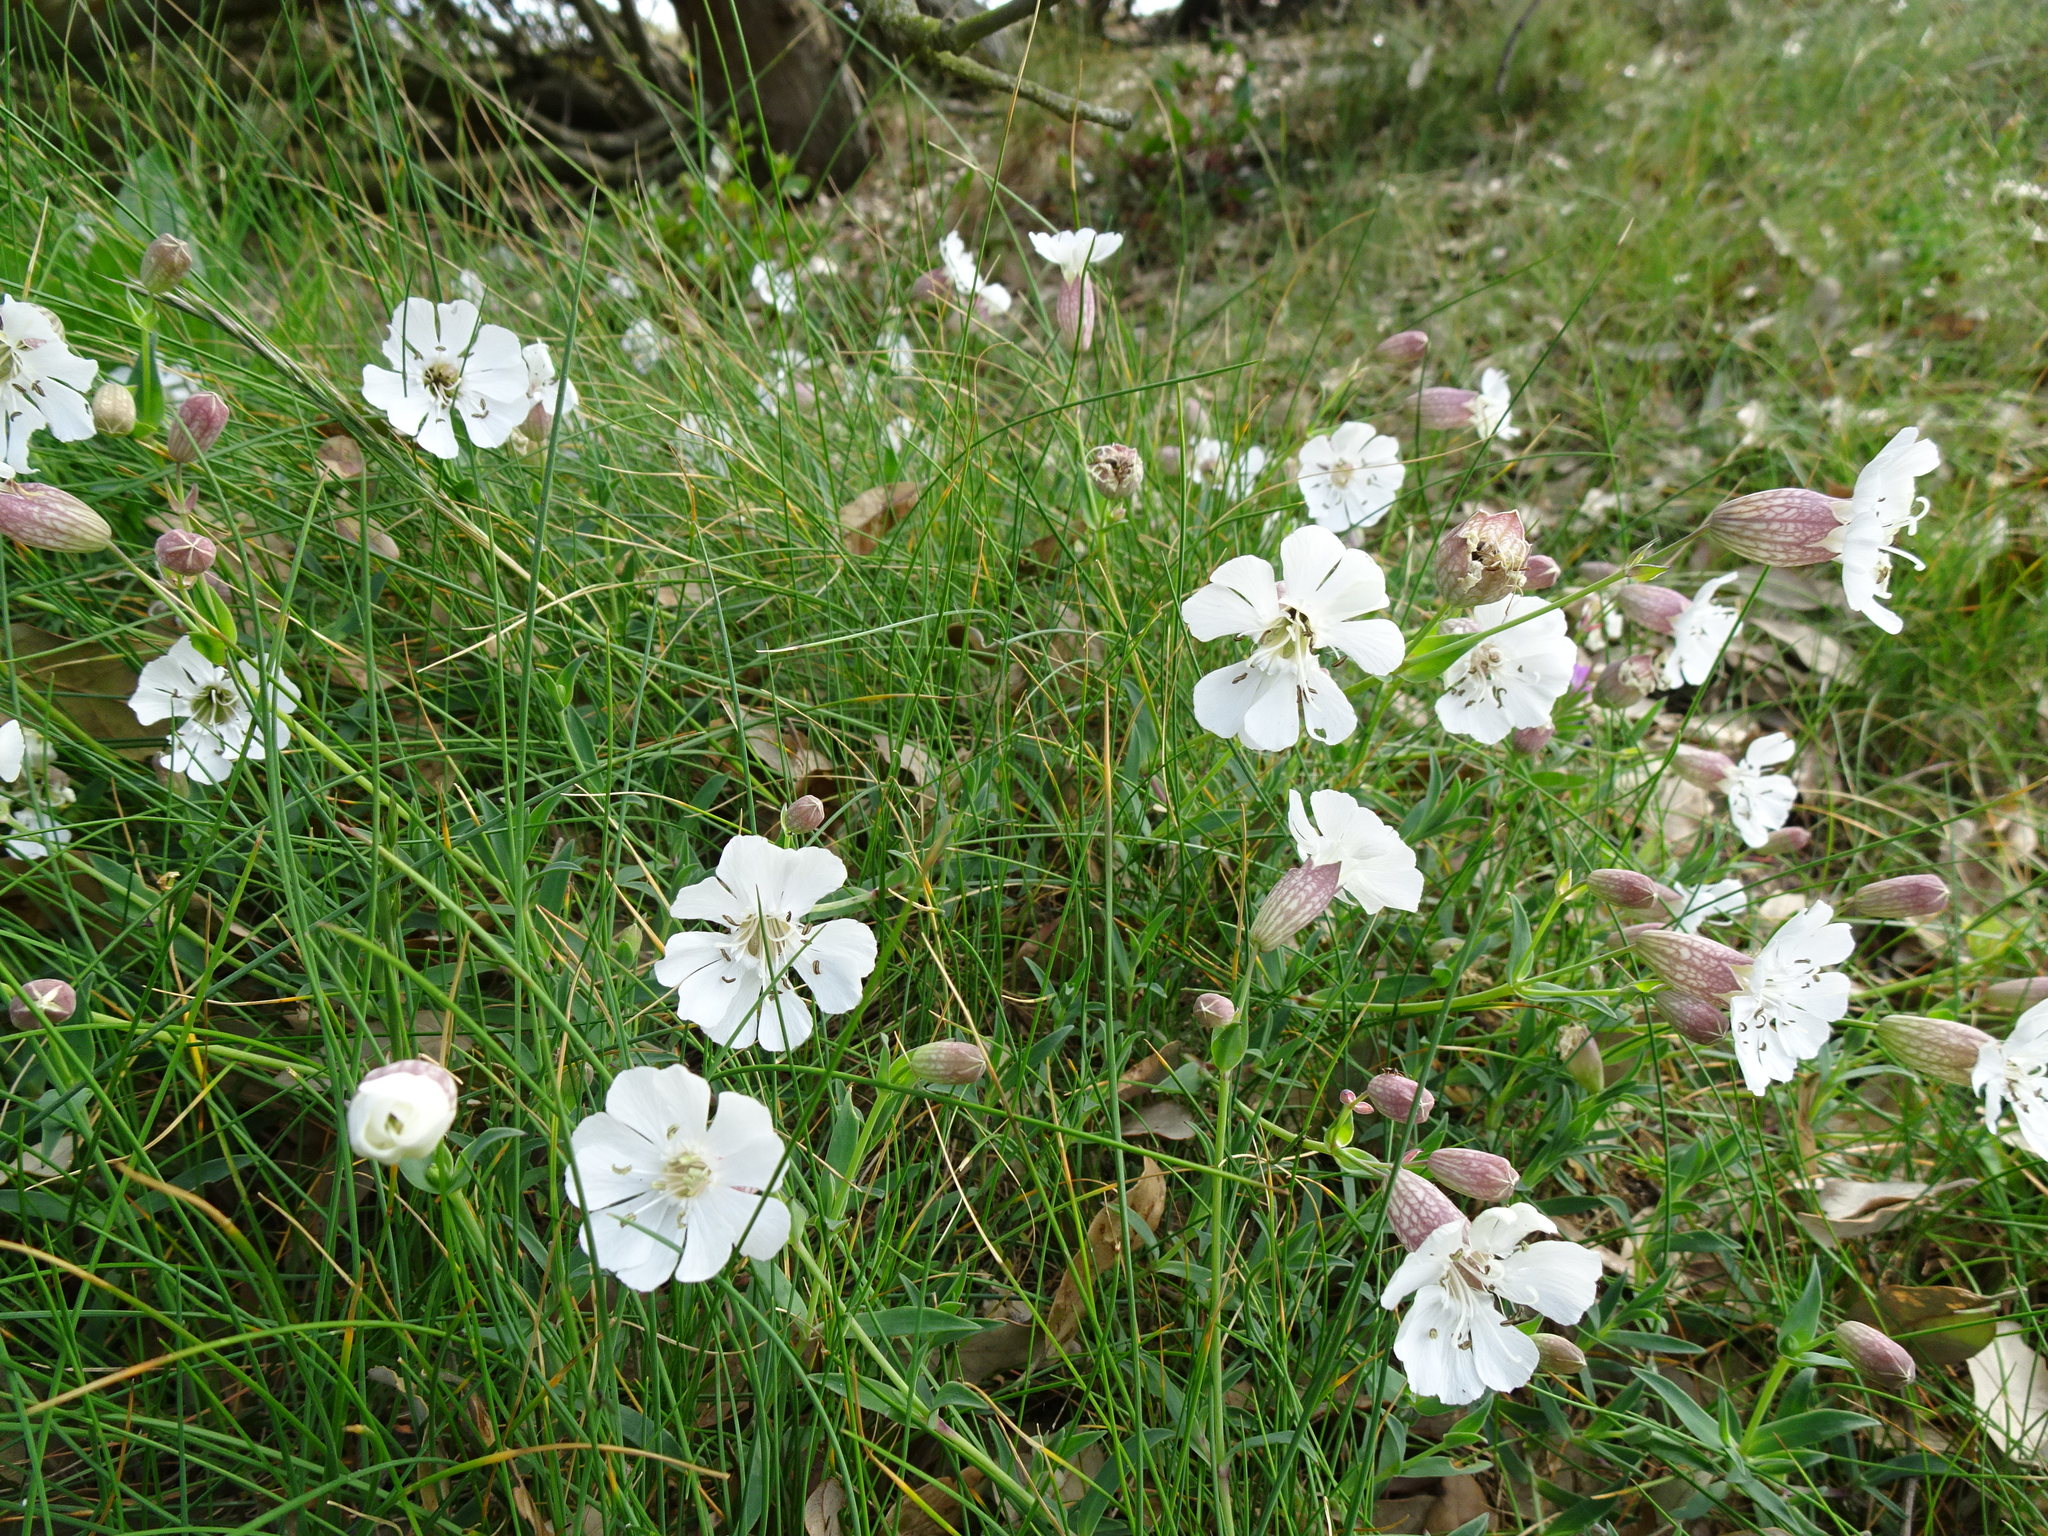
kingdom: Plantae
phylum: Tracheophyta
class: Magnoliopsida
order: Caryophyllales
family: Caryophyllaceae
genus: Silene
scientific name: Silene uniflora
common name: Sea campion
